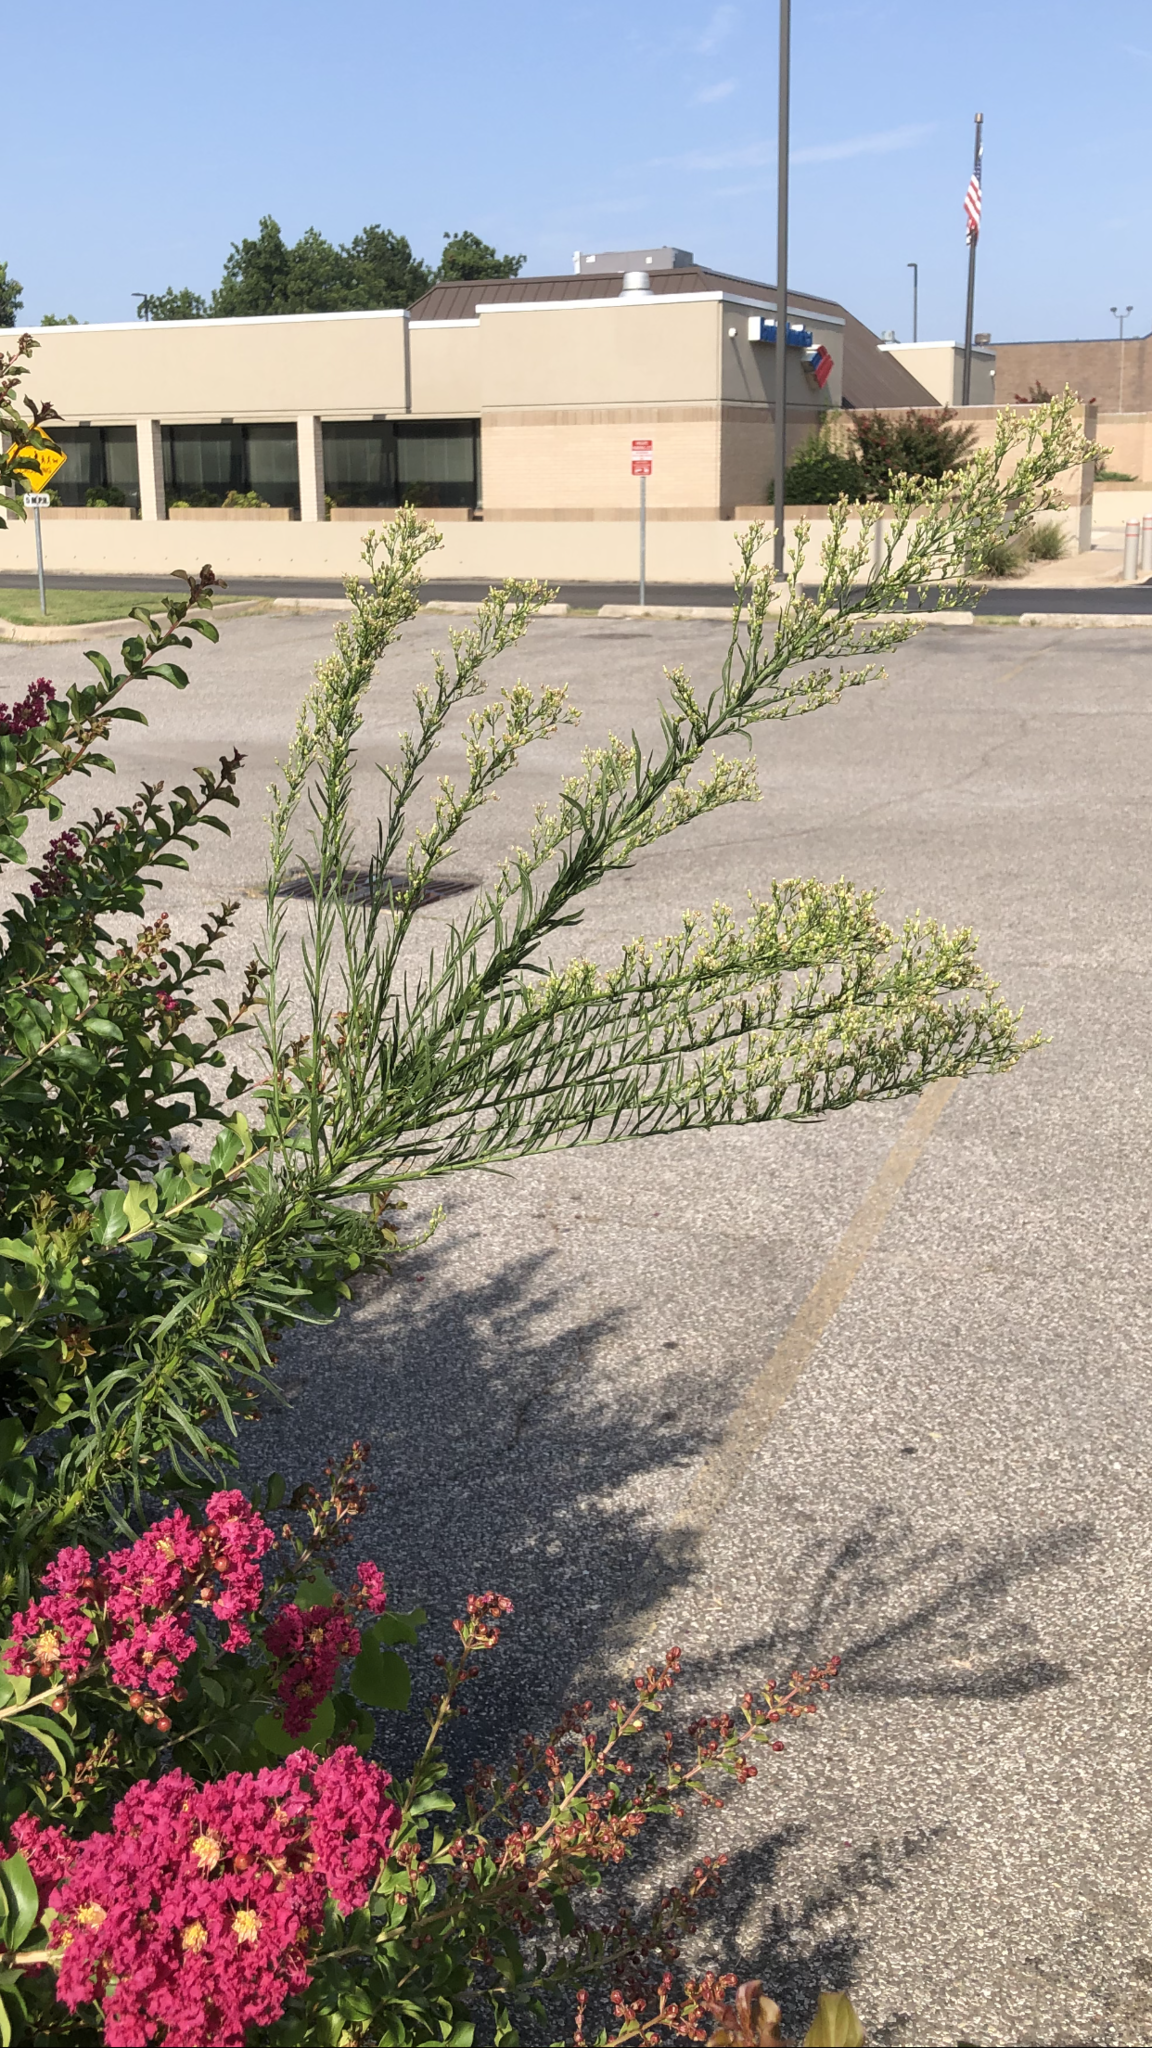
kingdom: Plantae
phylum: Tracheophyta
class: Magnoliopsida
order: Asterales
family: Asteraceae
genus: Erigeron
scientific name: Erigeron canadensis
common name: Canadian fleabane
